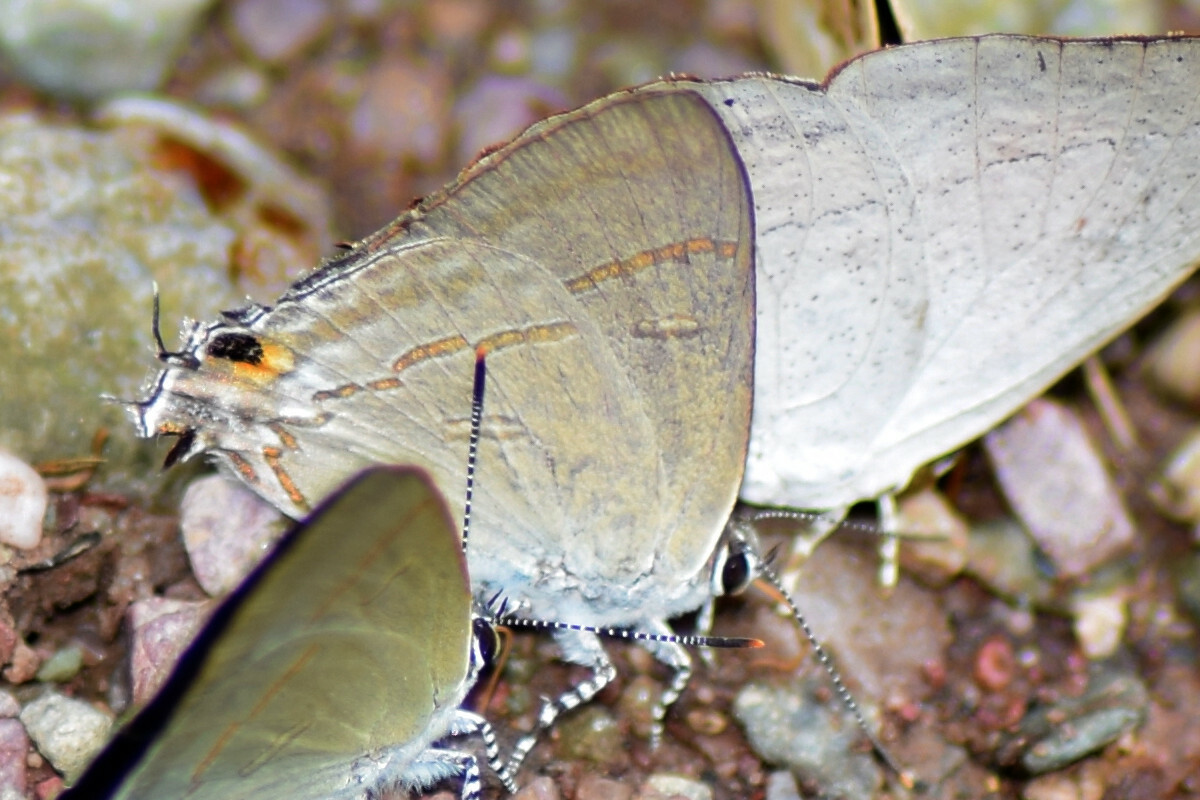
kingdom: Animalia
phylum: Arthropoda
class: Insecta
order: Lepidoptera
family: Lycaenidae
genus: Hypolycaena
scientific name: Hypolycaena erylus
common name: Common tit
